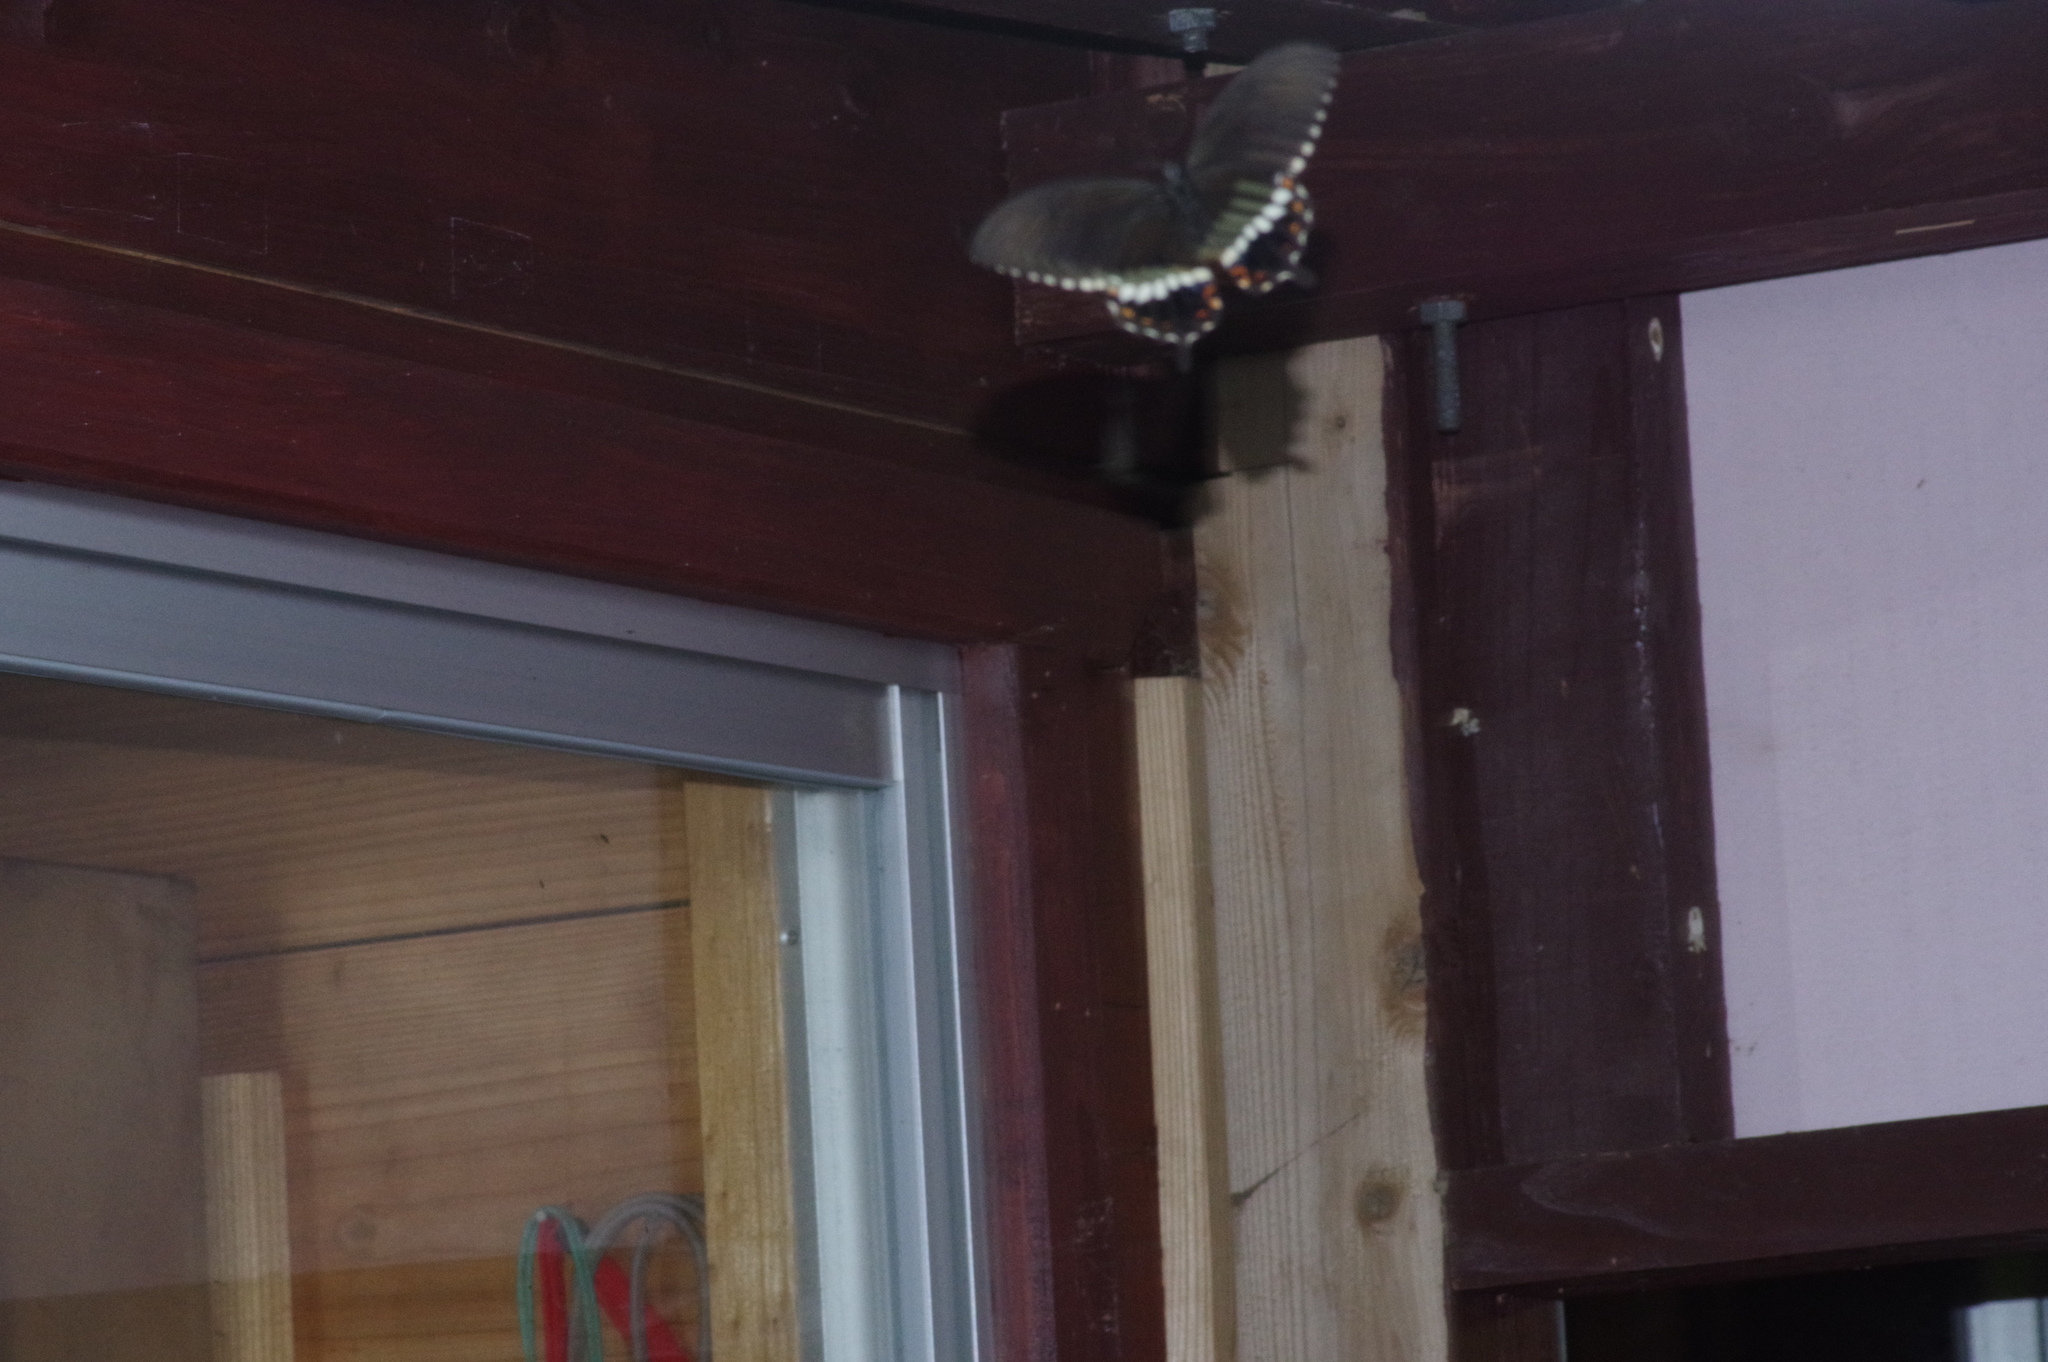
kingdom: Animalia
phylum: Arthropoda
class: Insecta
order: Lepidoptera
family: Papilionidae
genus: Papilio
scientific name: Papilio polytes
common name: Common mormon
